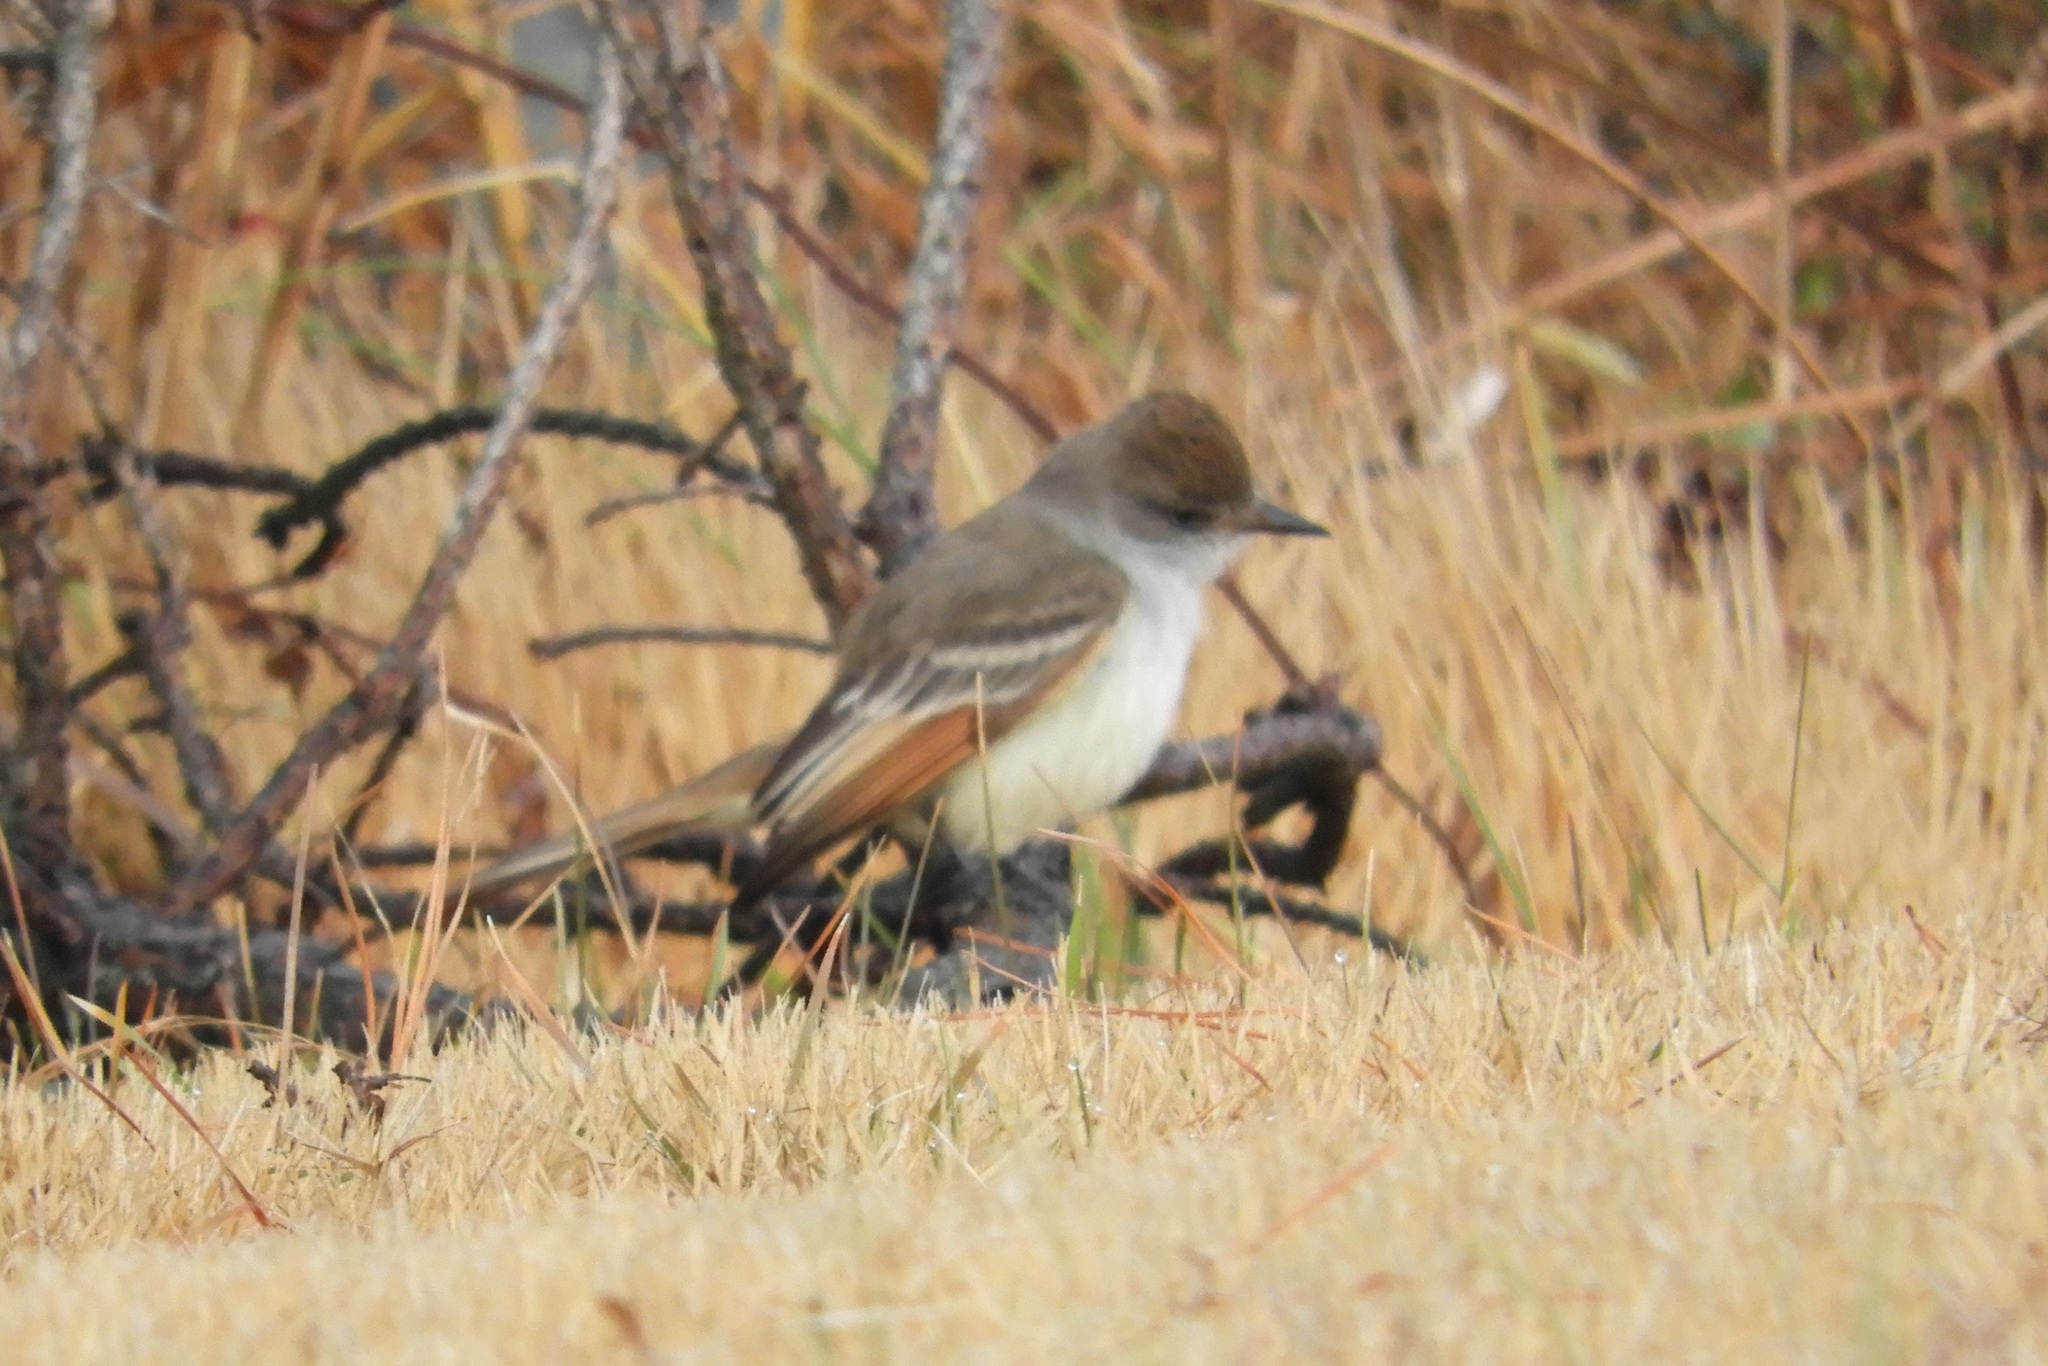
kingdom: Animalia
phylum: Chordata
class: Aves
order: Passeriformes
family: Tyrannidae
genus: Myiarchus
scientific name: Myiarchus cinerascens
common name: Ash-throated flycatcher
